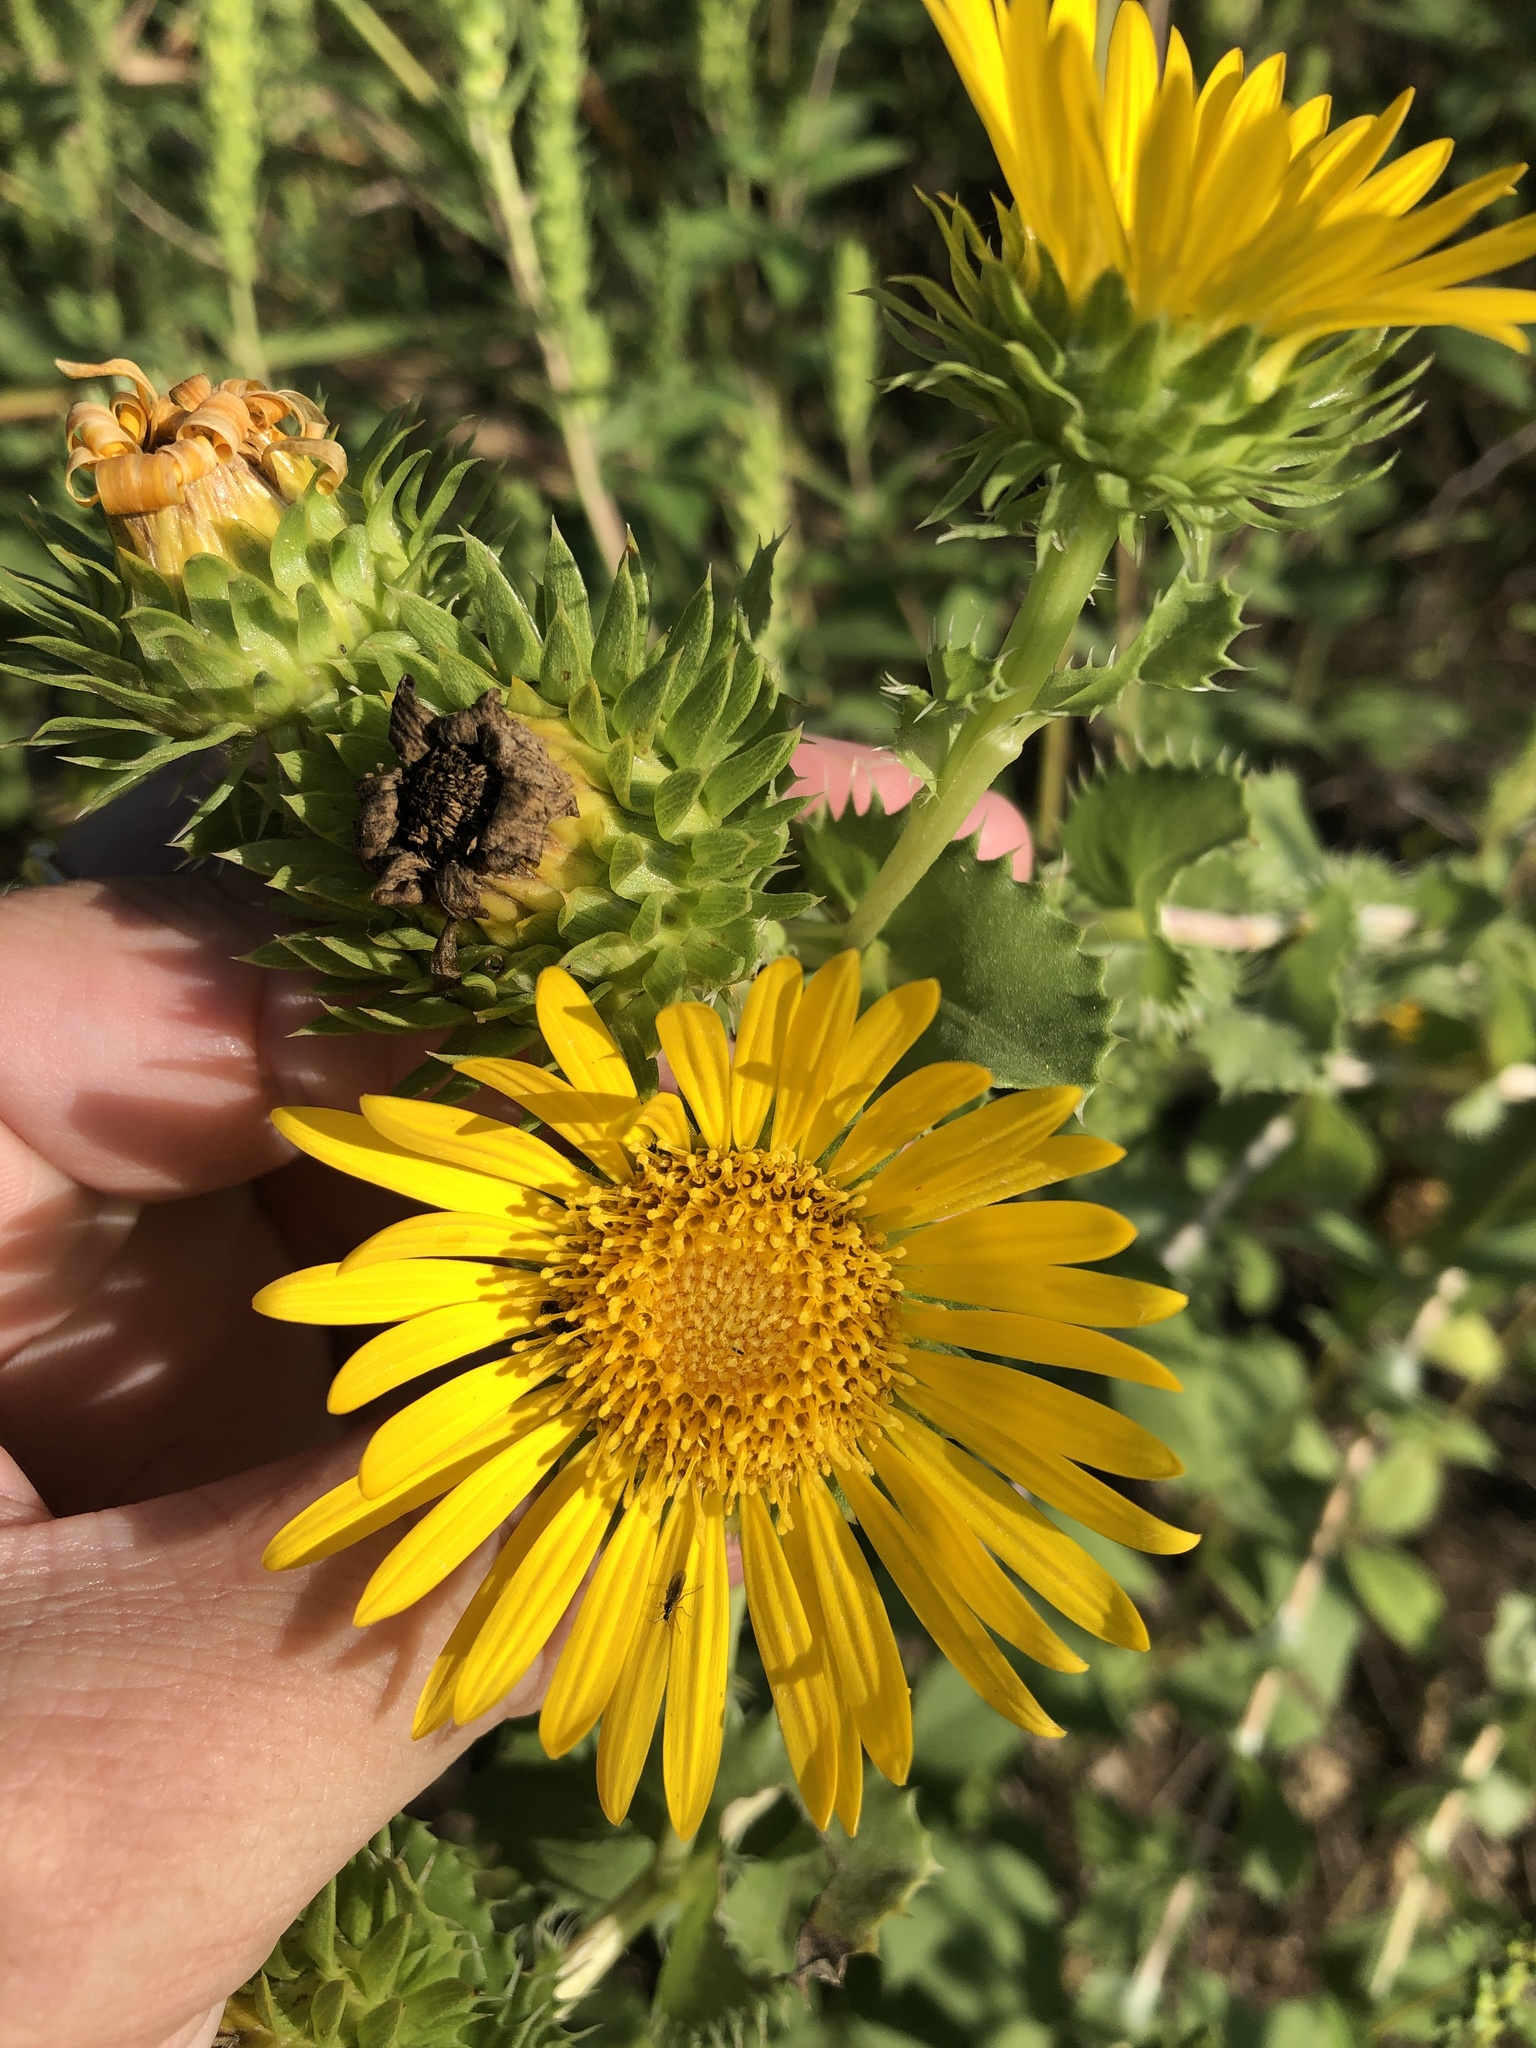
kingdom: Plantae
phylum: Tracheophyta
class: Magnoliopsida
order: Asterales
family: Asteraceae
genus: Grindelia
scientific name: Grindelia ciliata
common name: Goldenweed
